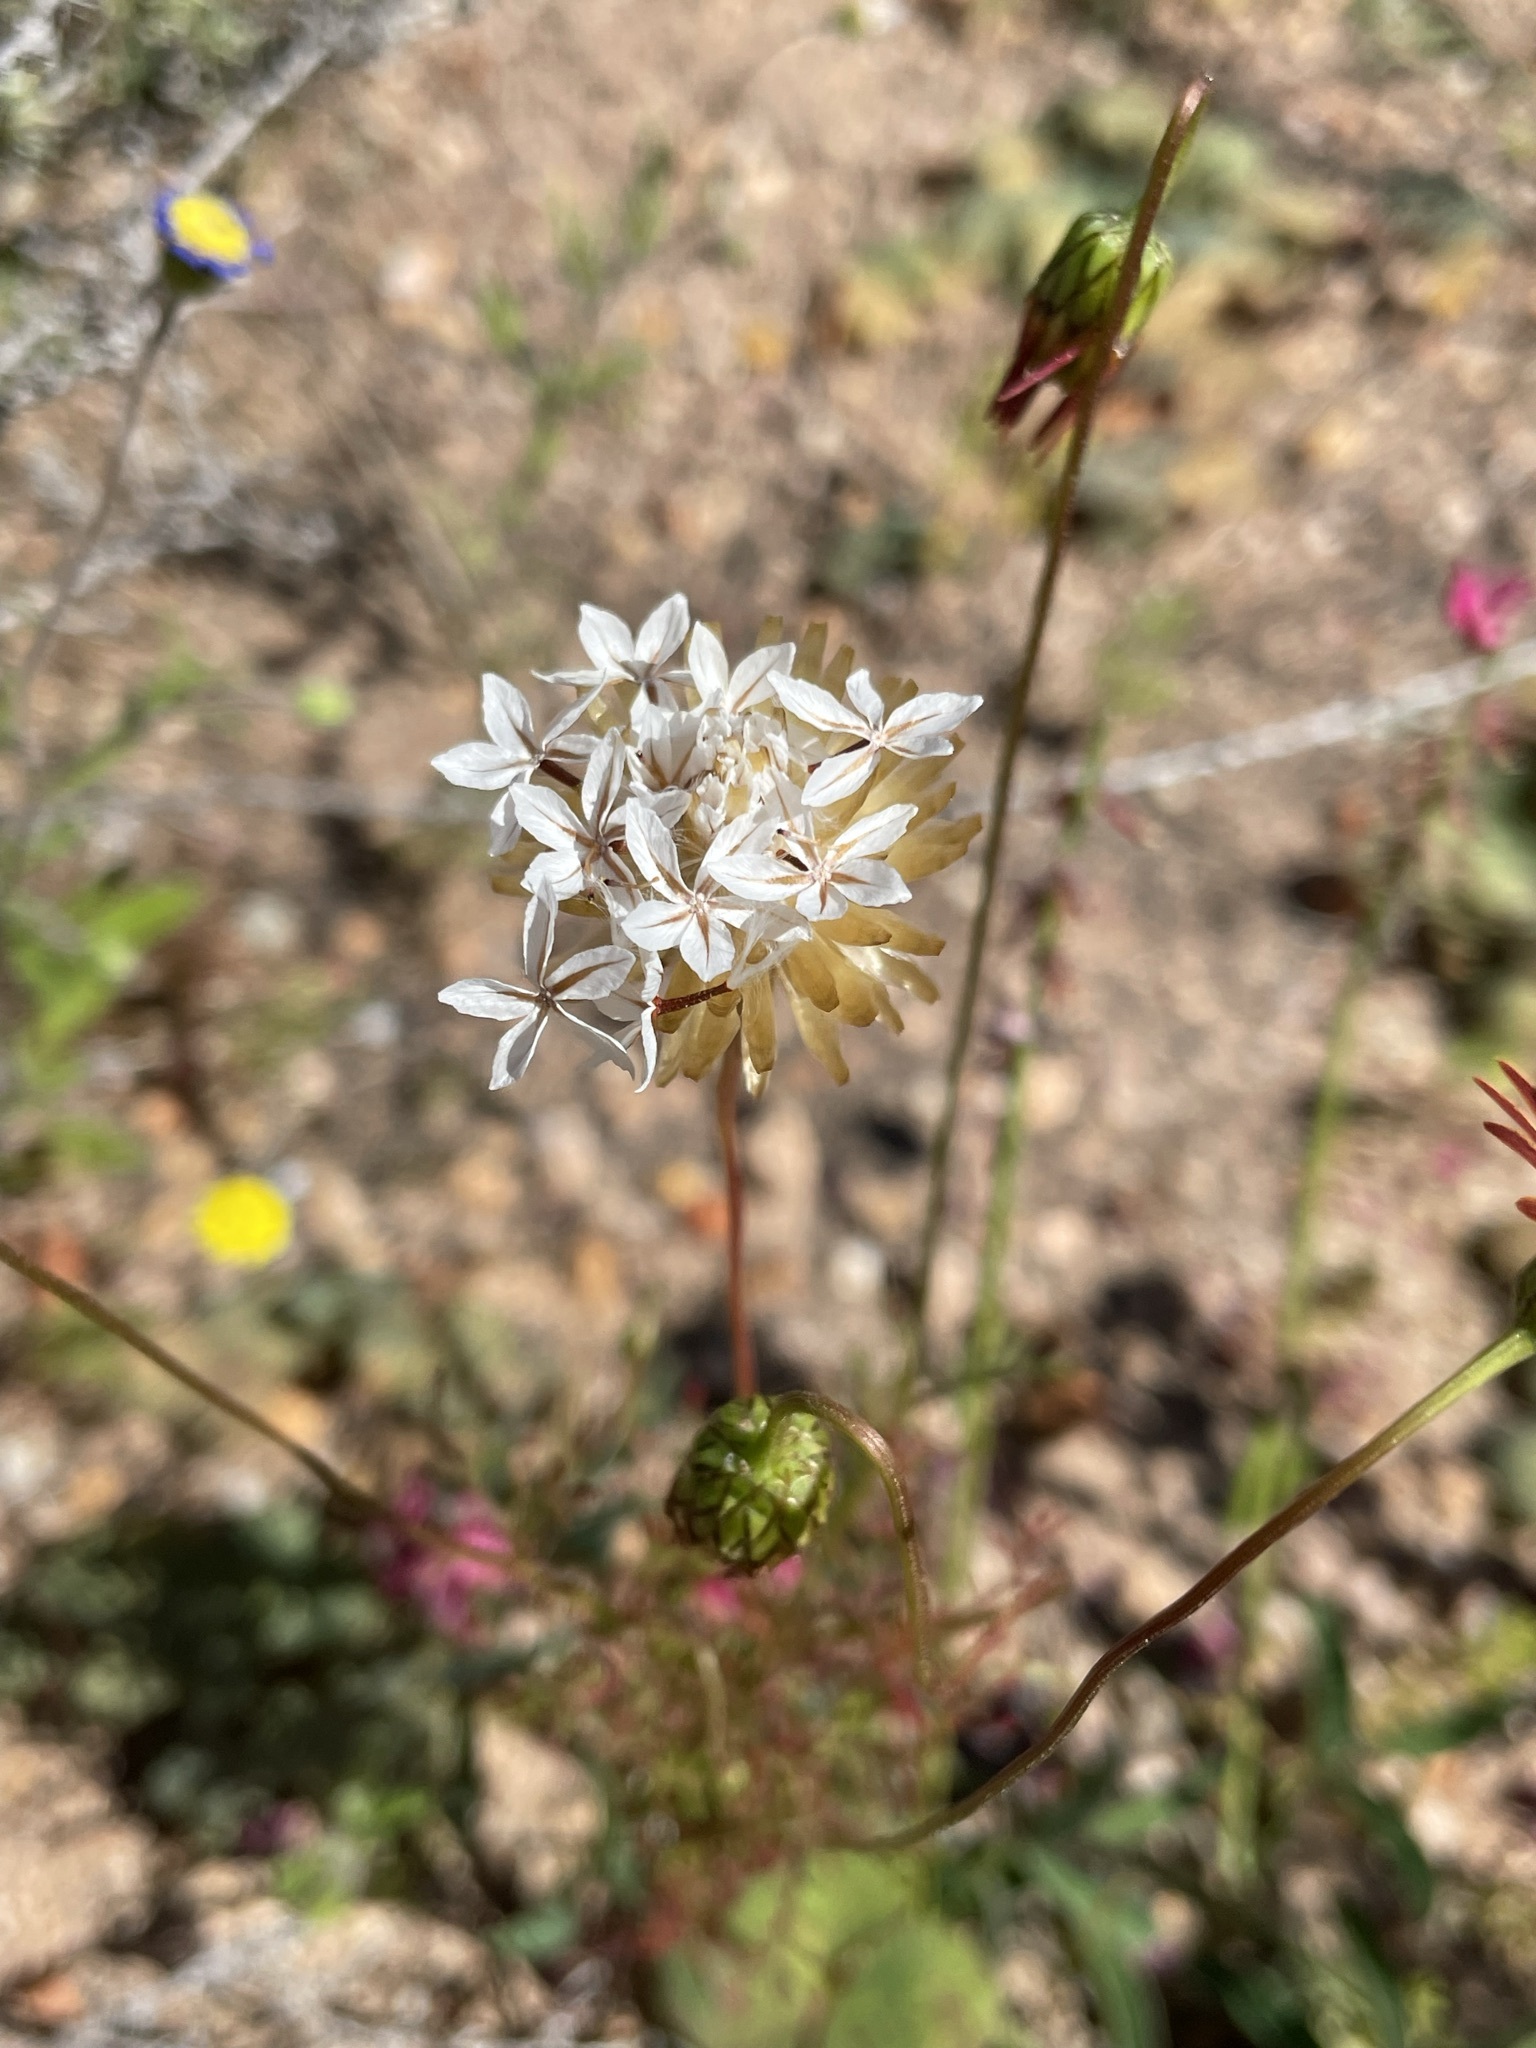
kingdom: Plantae
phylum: Tracheophyta
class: Magnoliopsida
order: Asterales
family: Asteraceae
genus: Ursinia
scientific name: Ursinia anthemoides
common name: Ursinia
